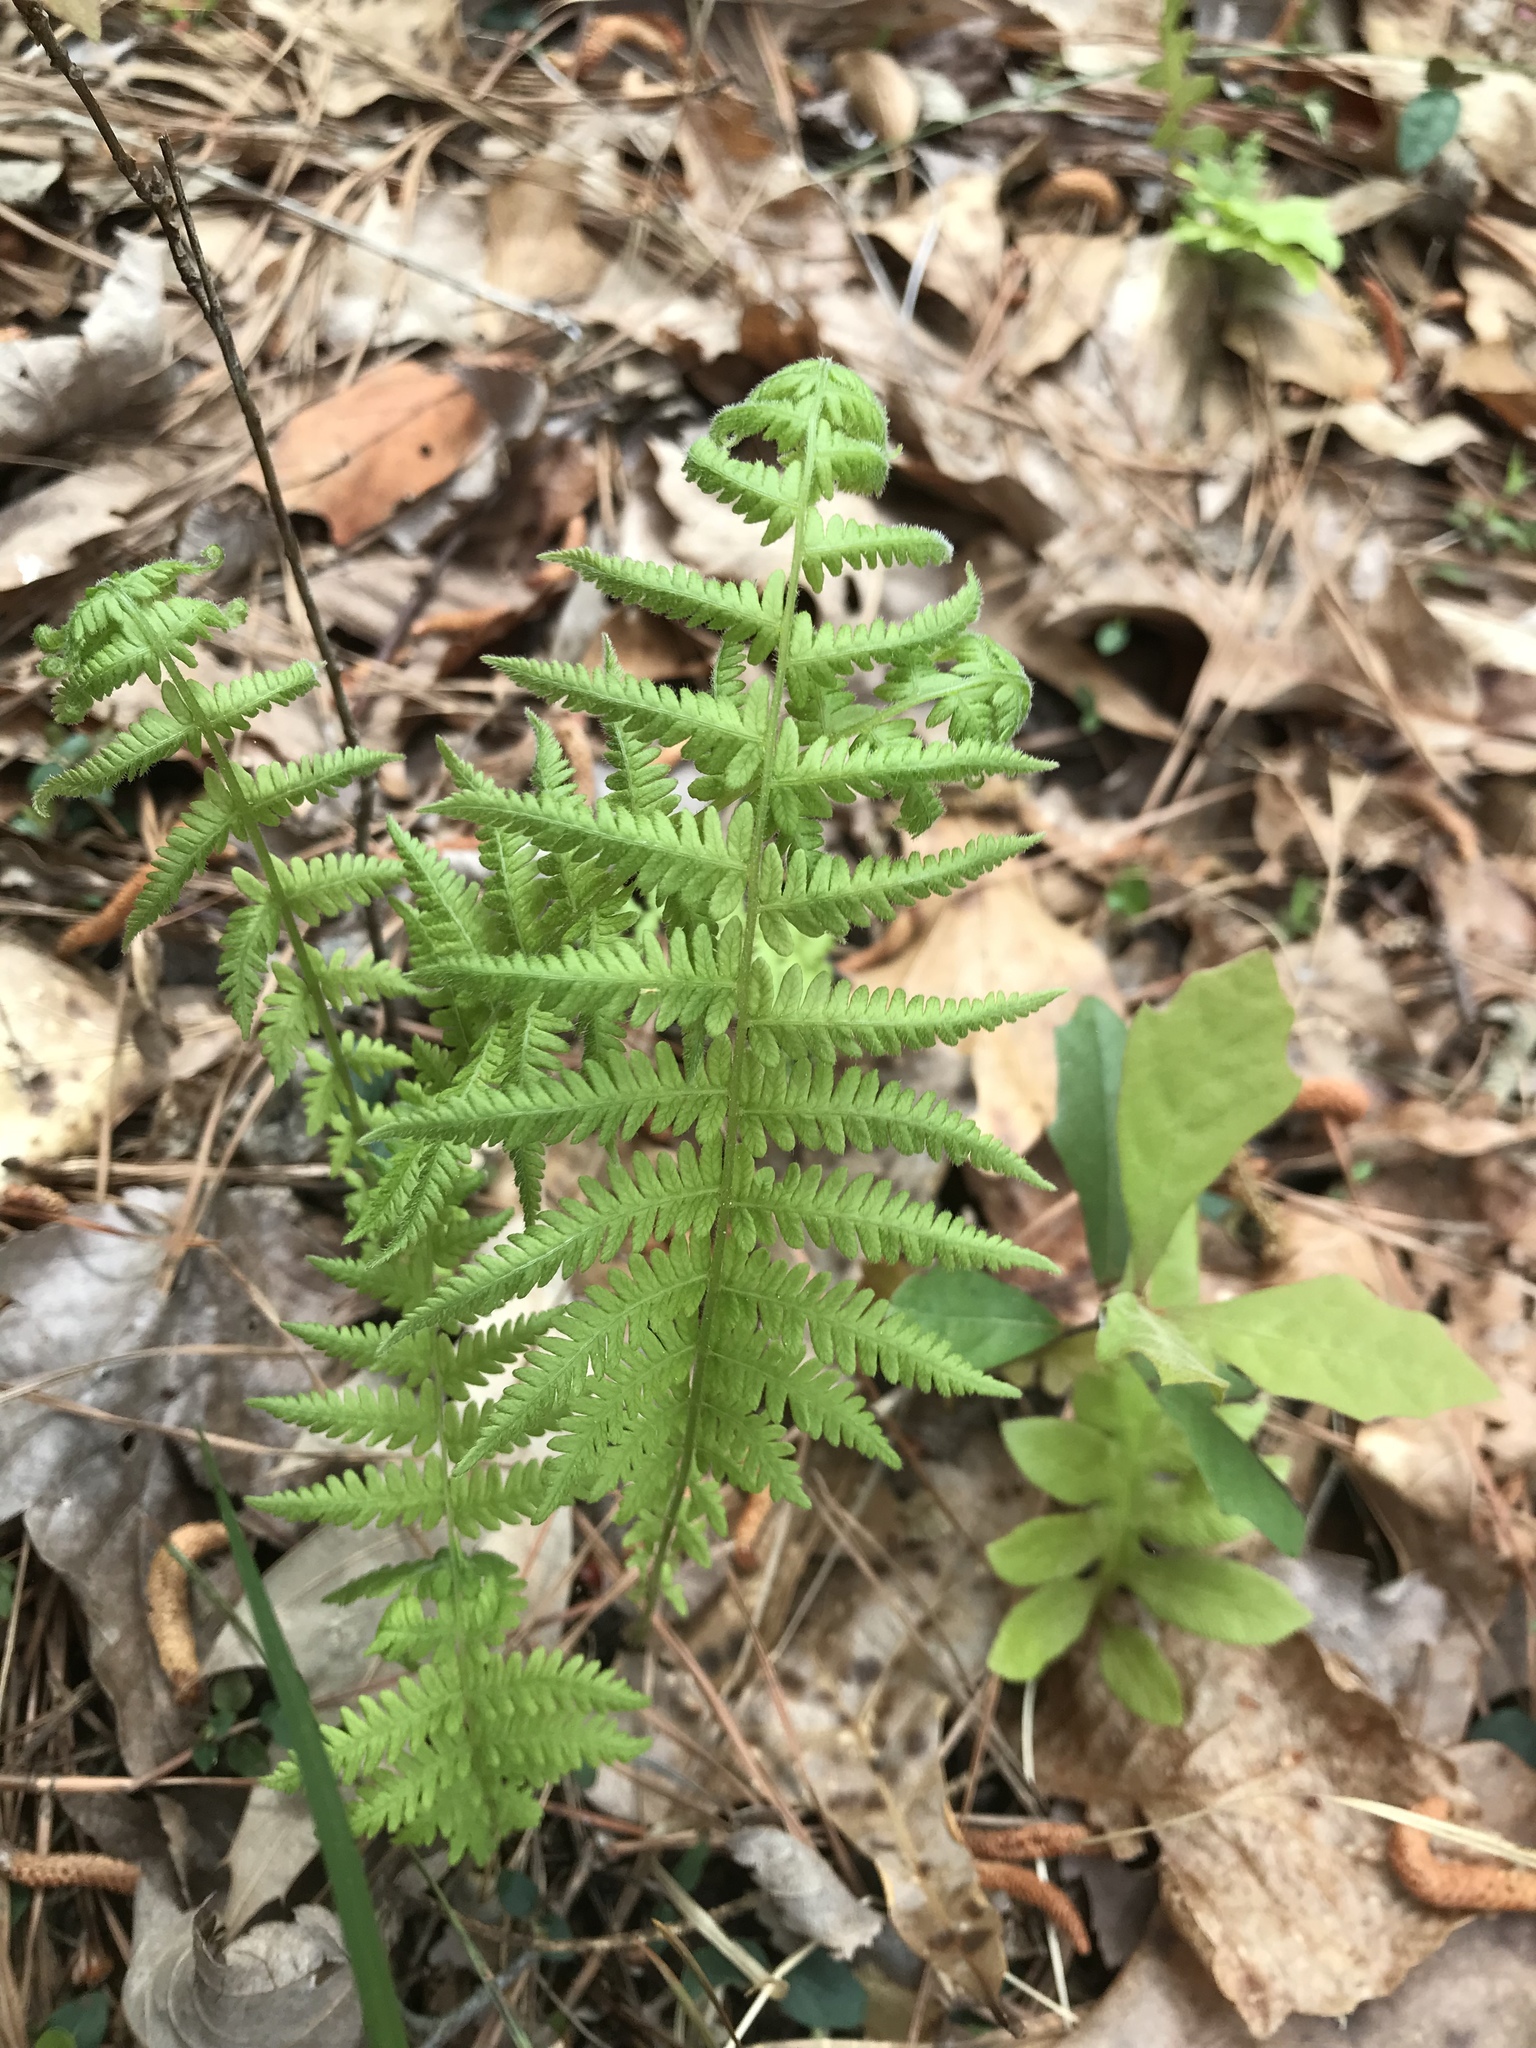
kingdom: Plantae
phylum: Tracheophyta
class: Polypodiopsida
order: Polypodiales
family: Thelypteridaceae
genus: Amauropelta
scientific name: Amauropelta noveboracensis
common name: New york fern
